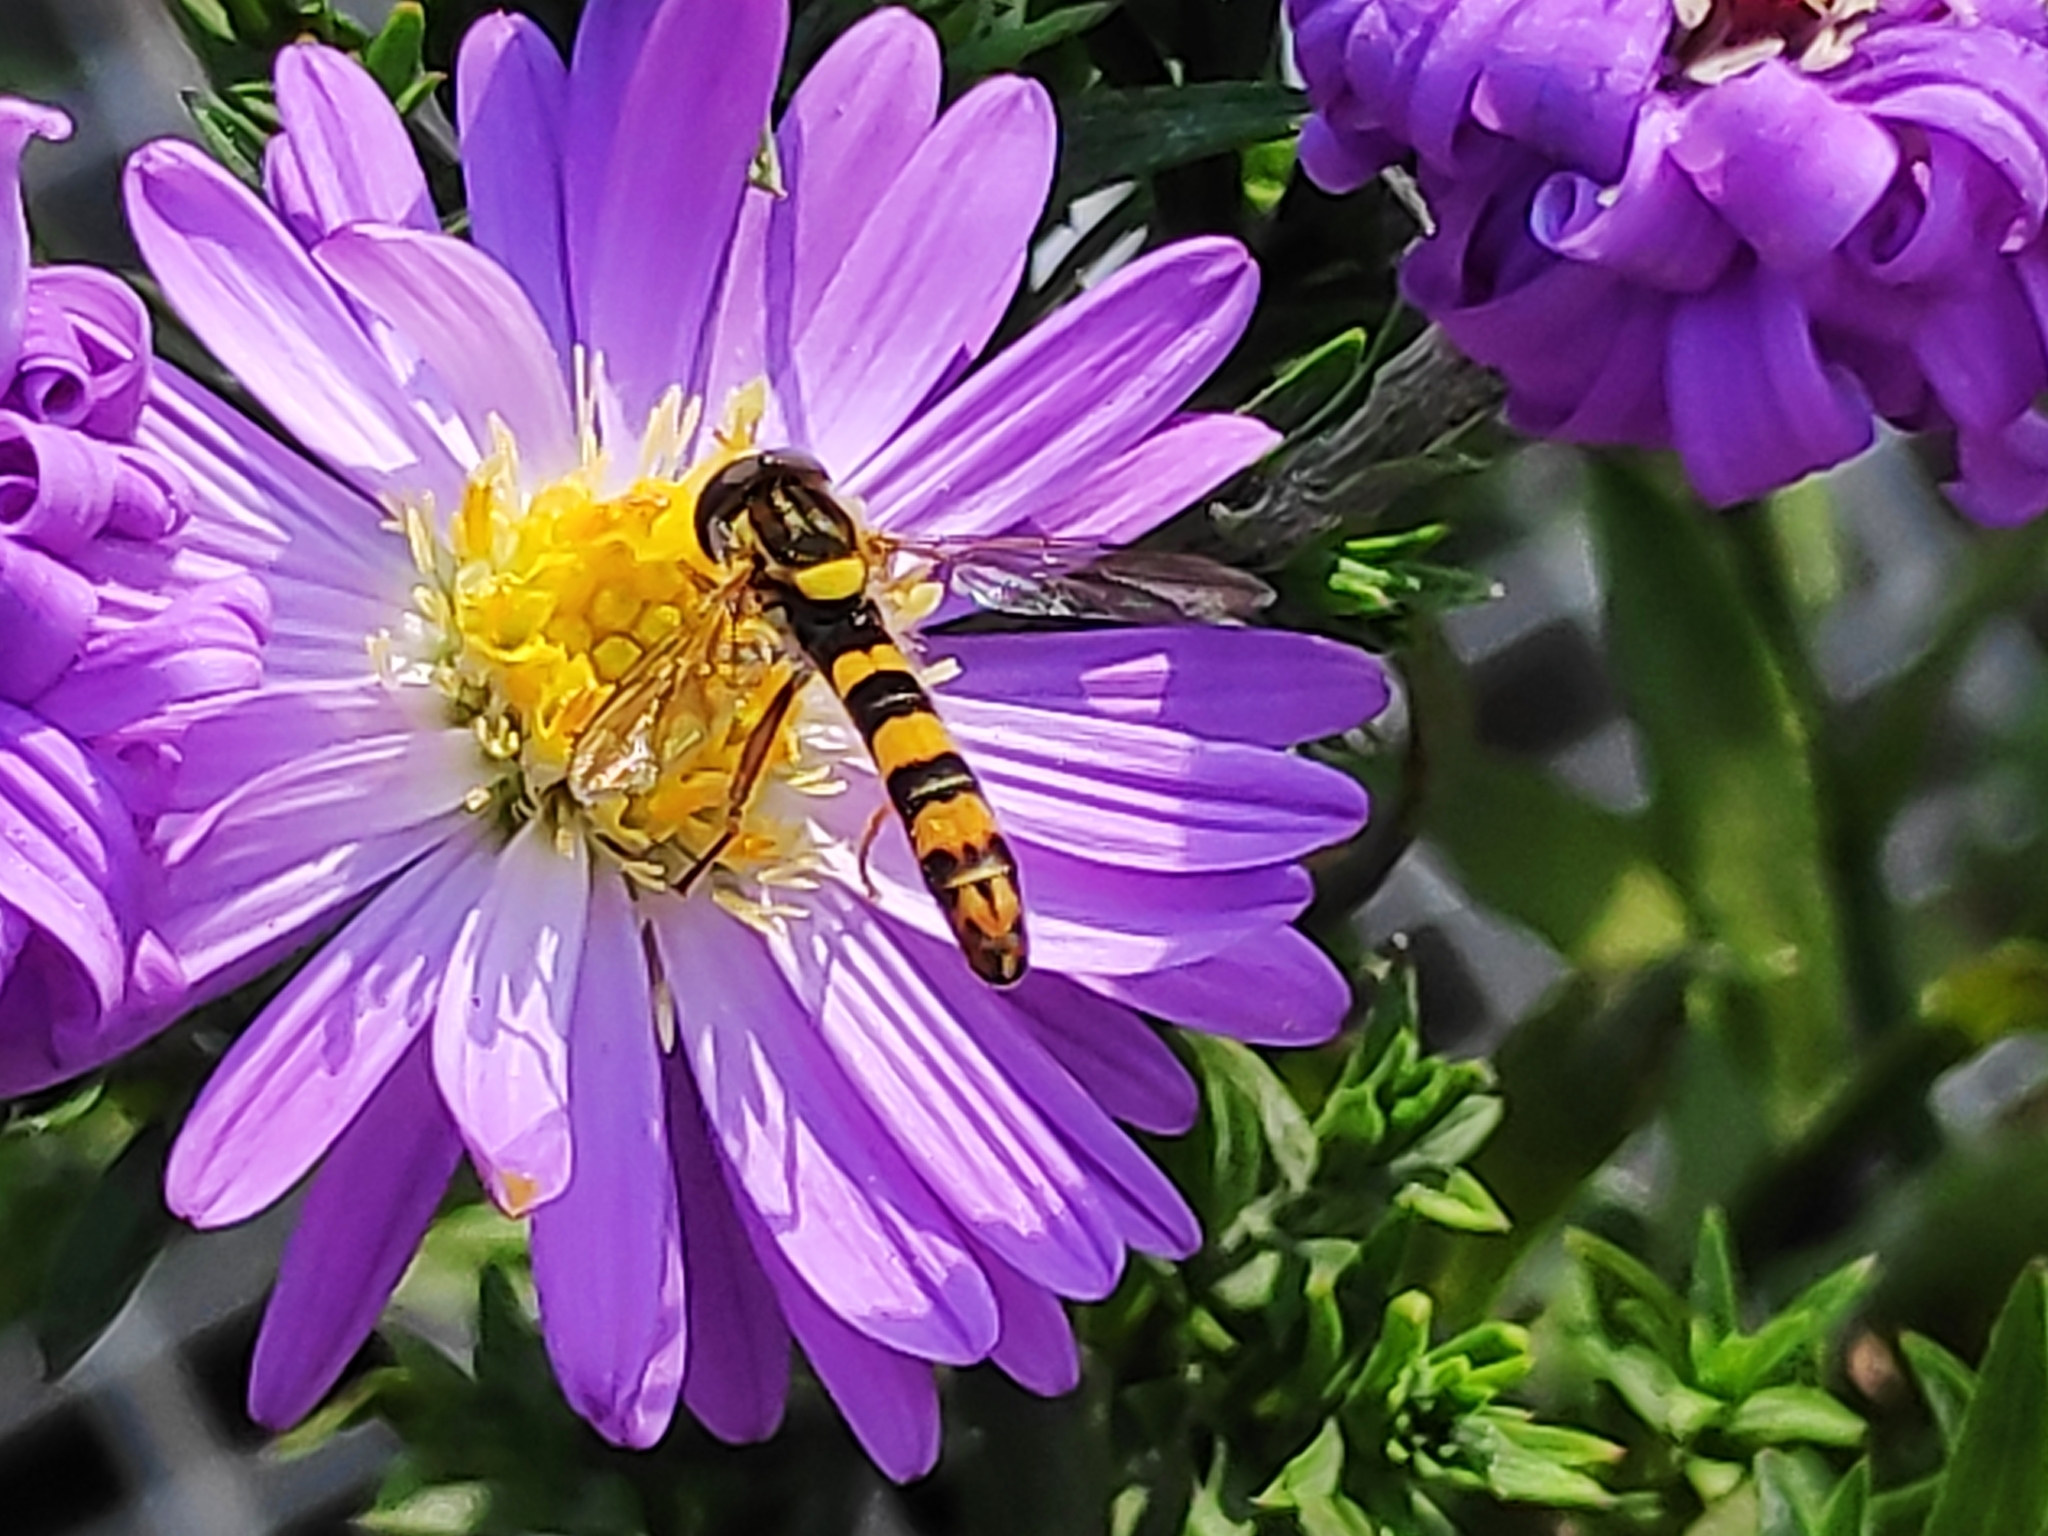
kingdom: Animalia
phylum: Arthropoda
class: Insecta
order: Diptera
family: Syrphidae
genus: Sphaerophoria
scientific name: Sphaerophoria scripta
